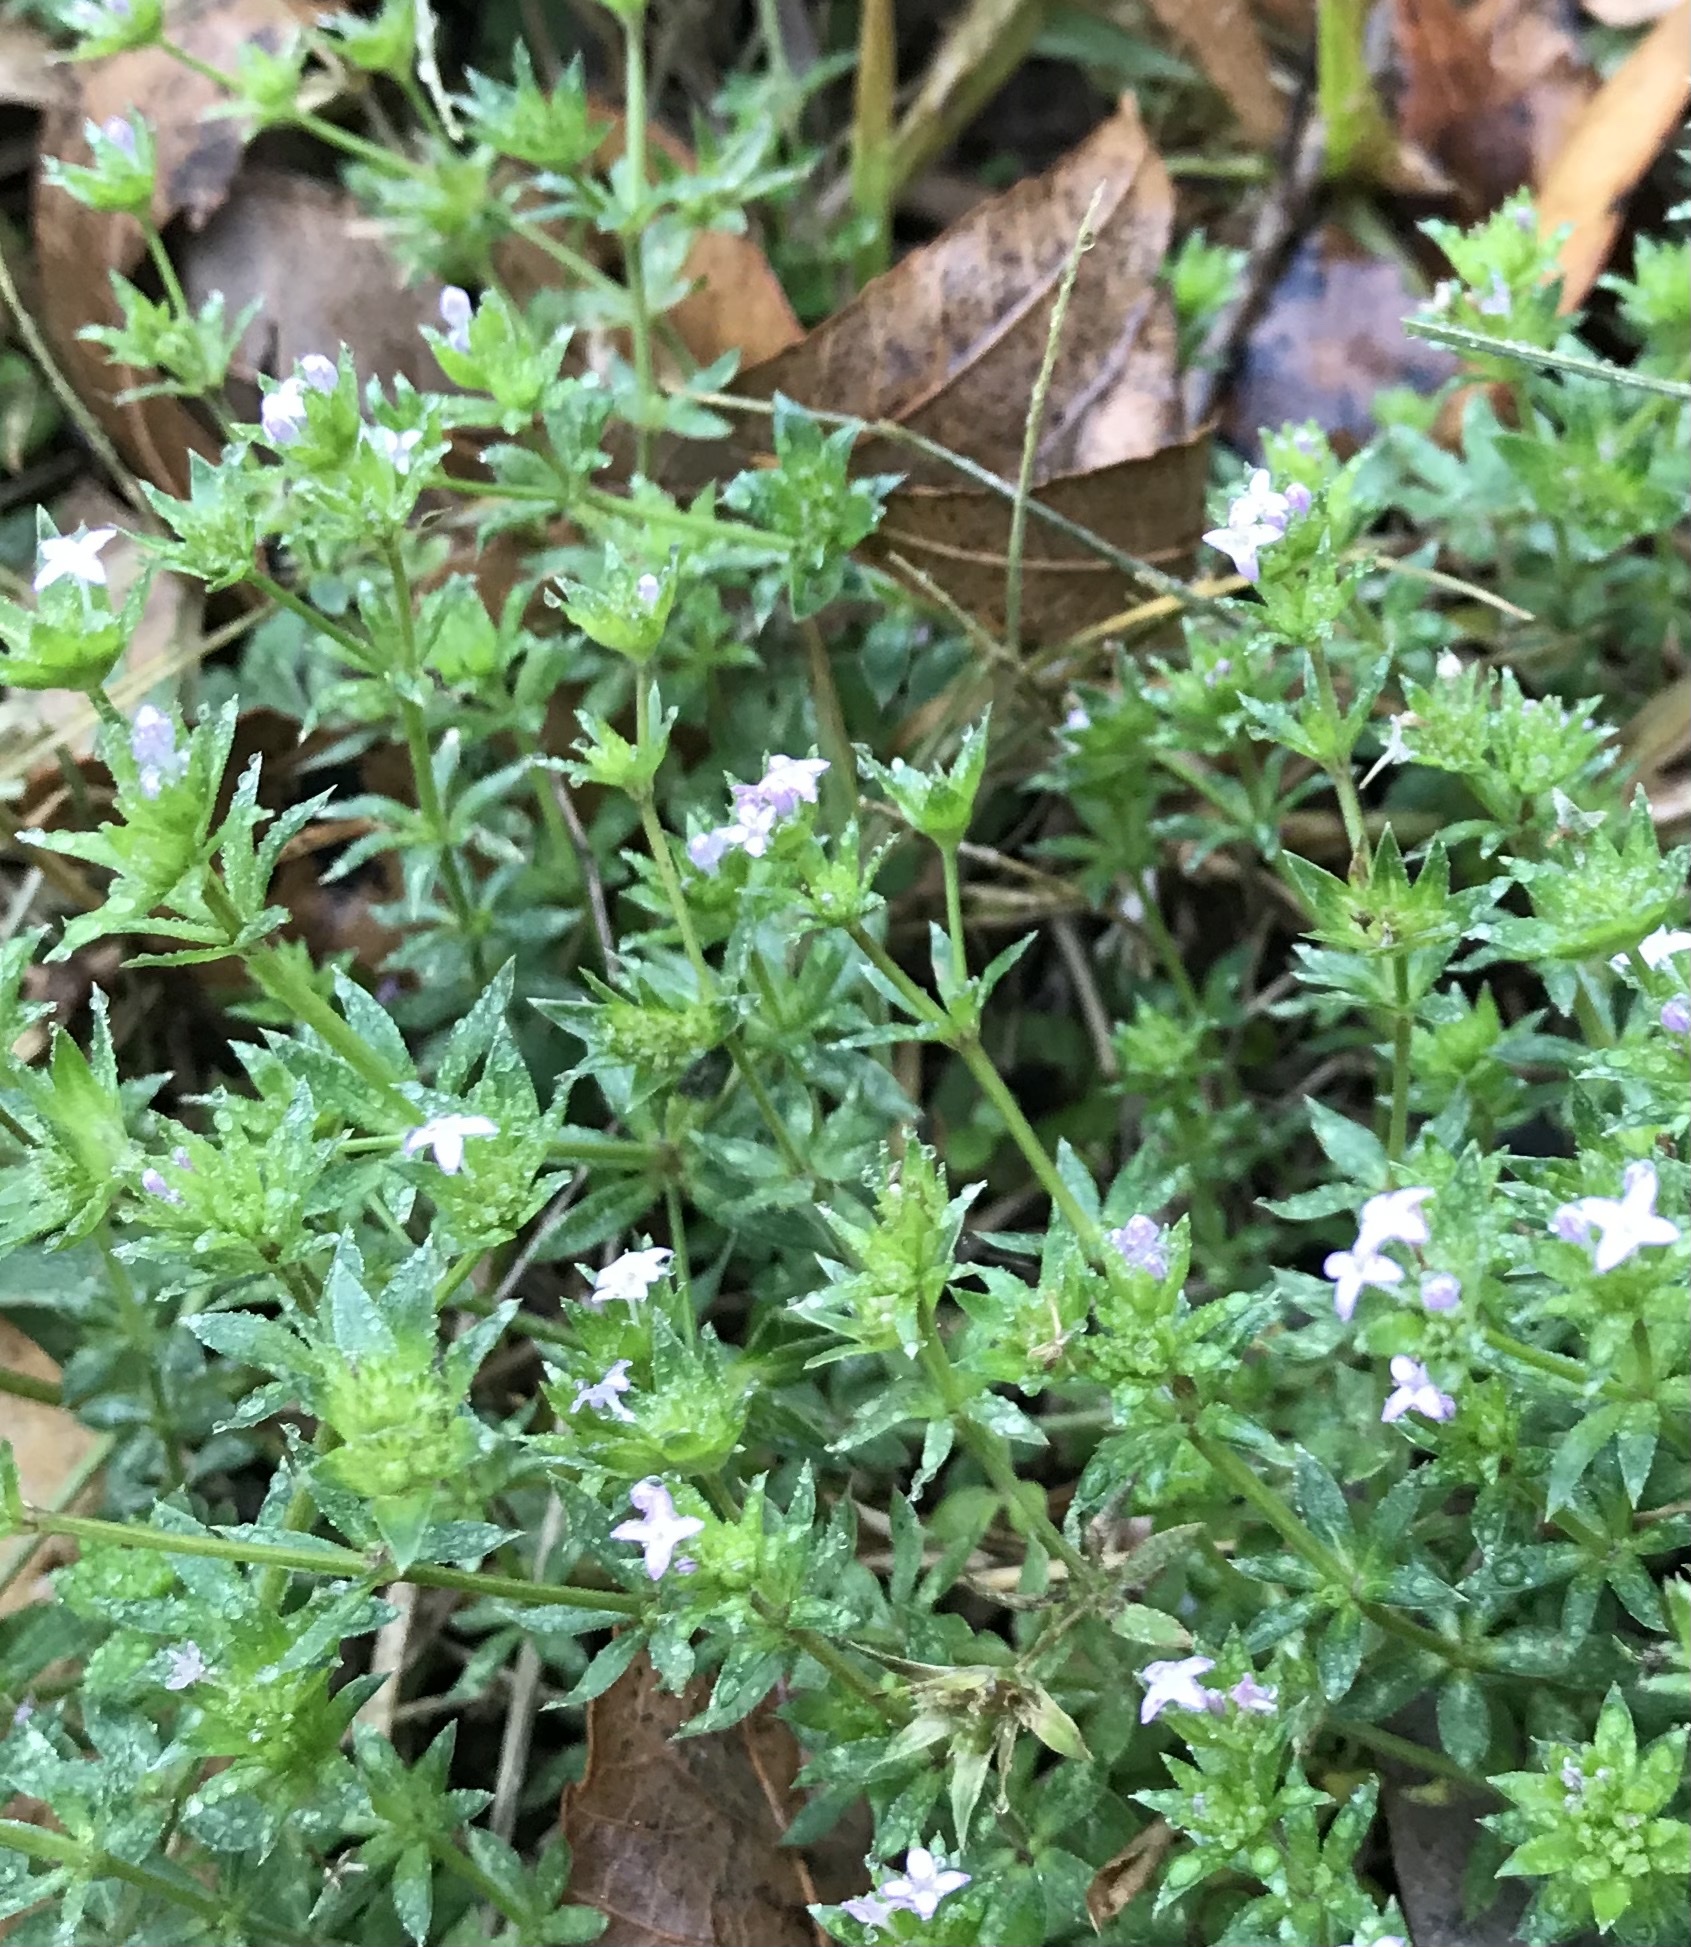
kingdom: Plantae
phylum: Tracheophyta
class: Magnoliopsida
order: Gentianales
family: Rubiaceae
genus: Sherardia
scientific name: Sherardia arvensis
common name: Field madder
